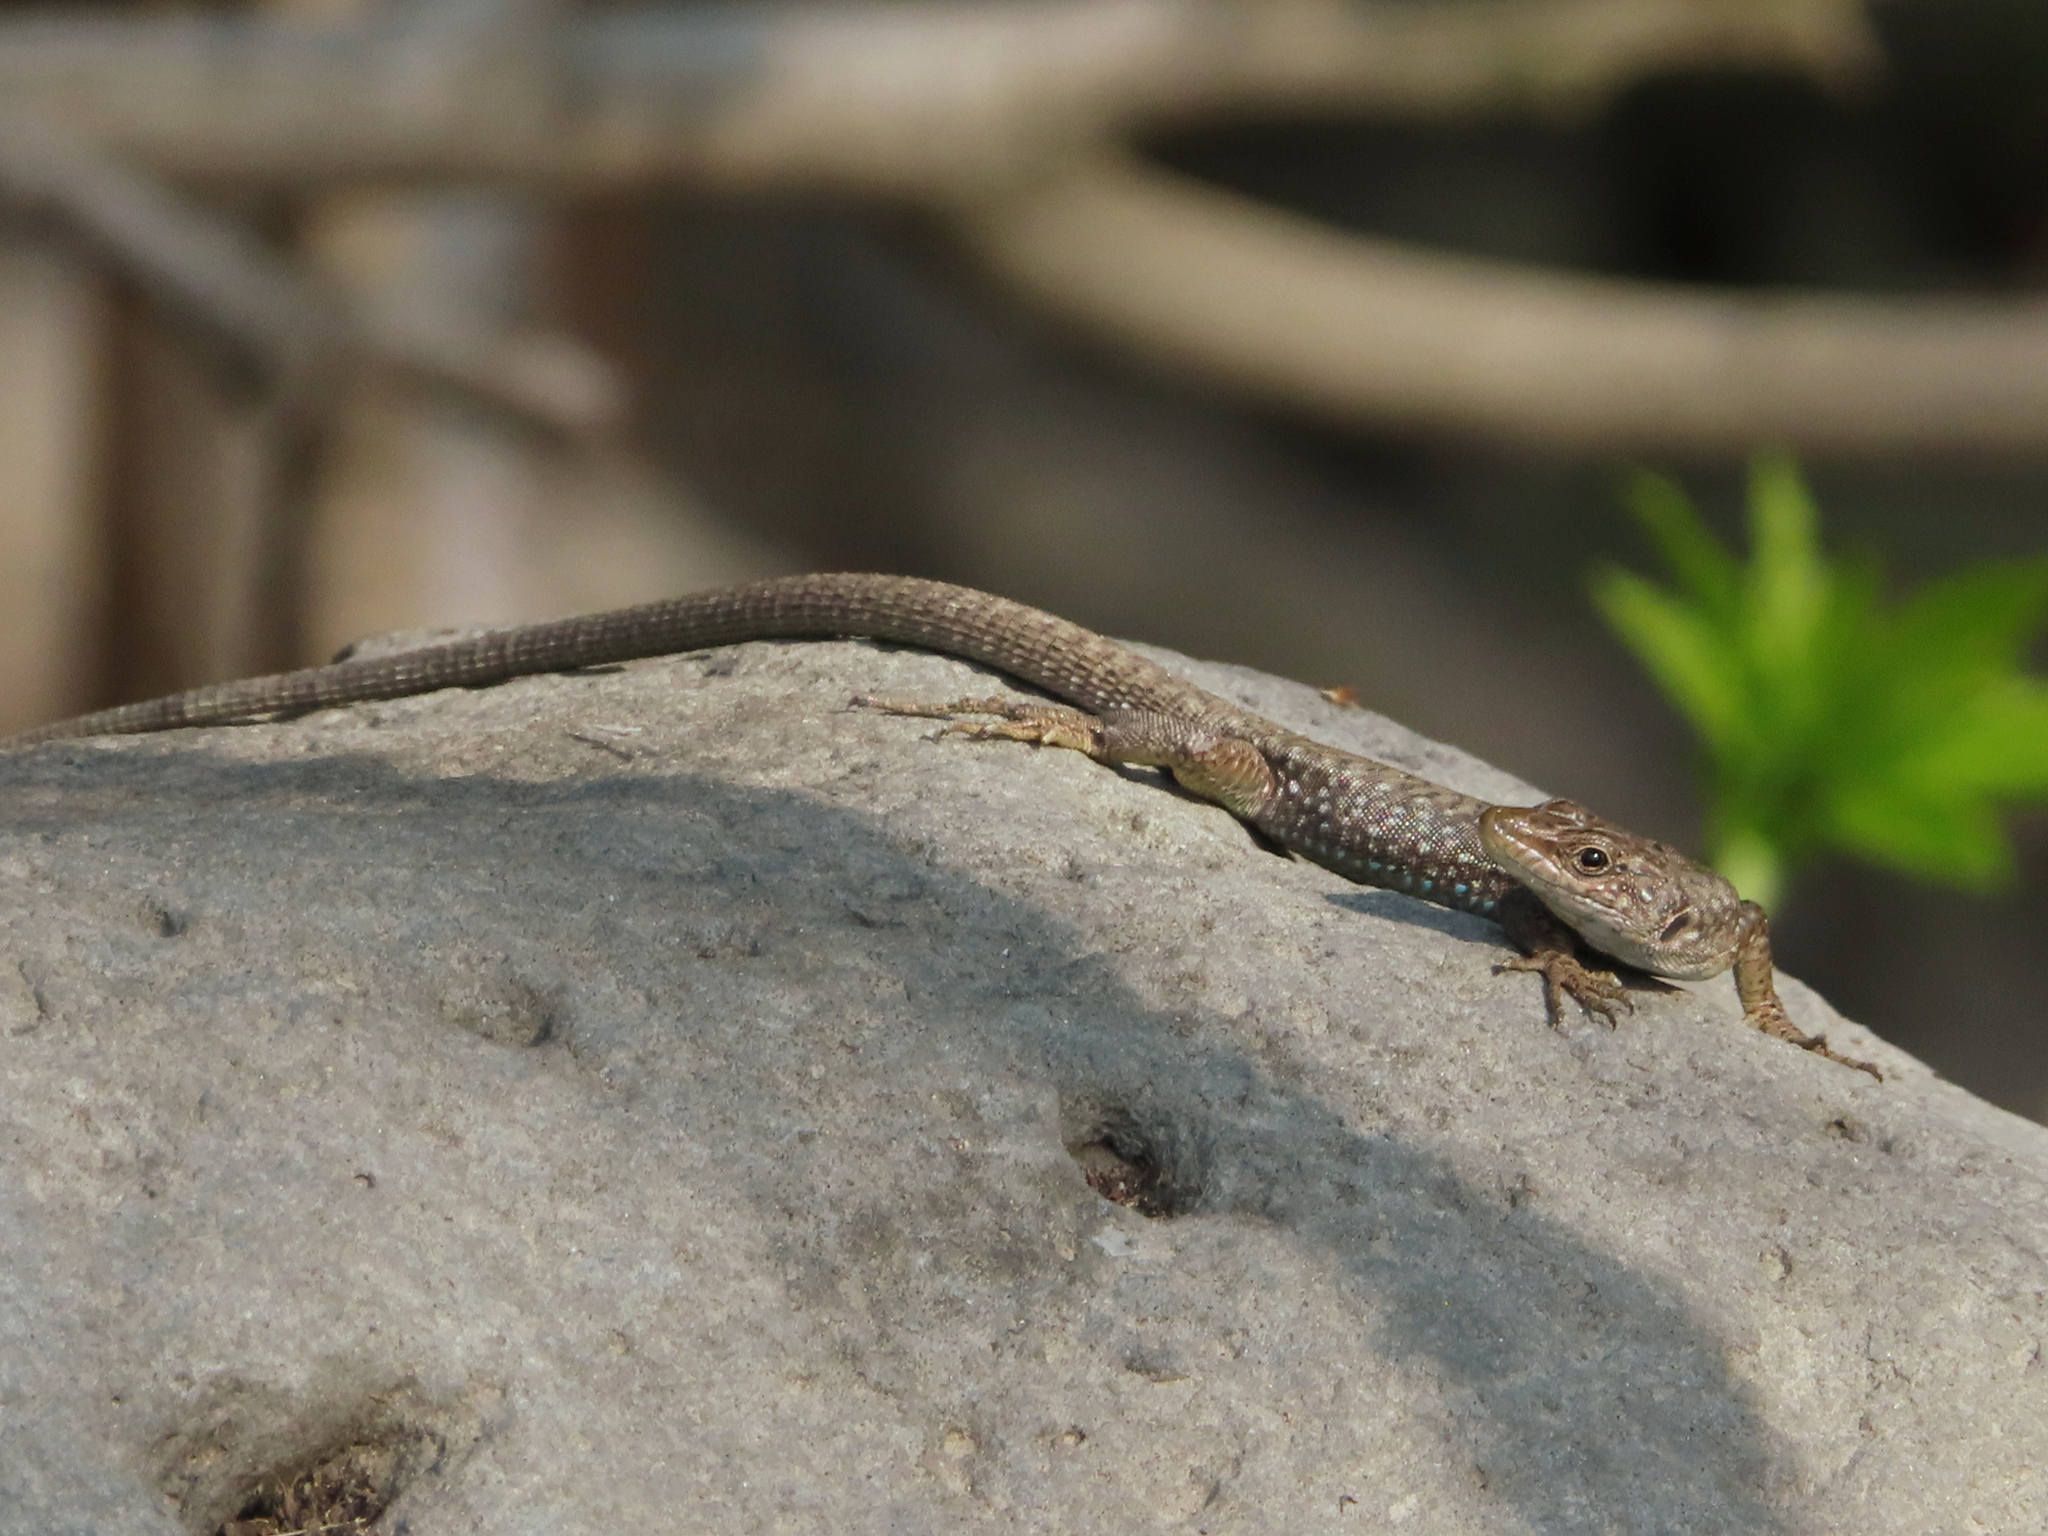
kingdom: Animalia
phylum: Chordata
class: Squamata
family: Lacertidae
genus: Darevskia
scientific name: Darevskia
